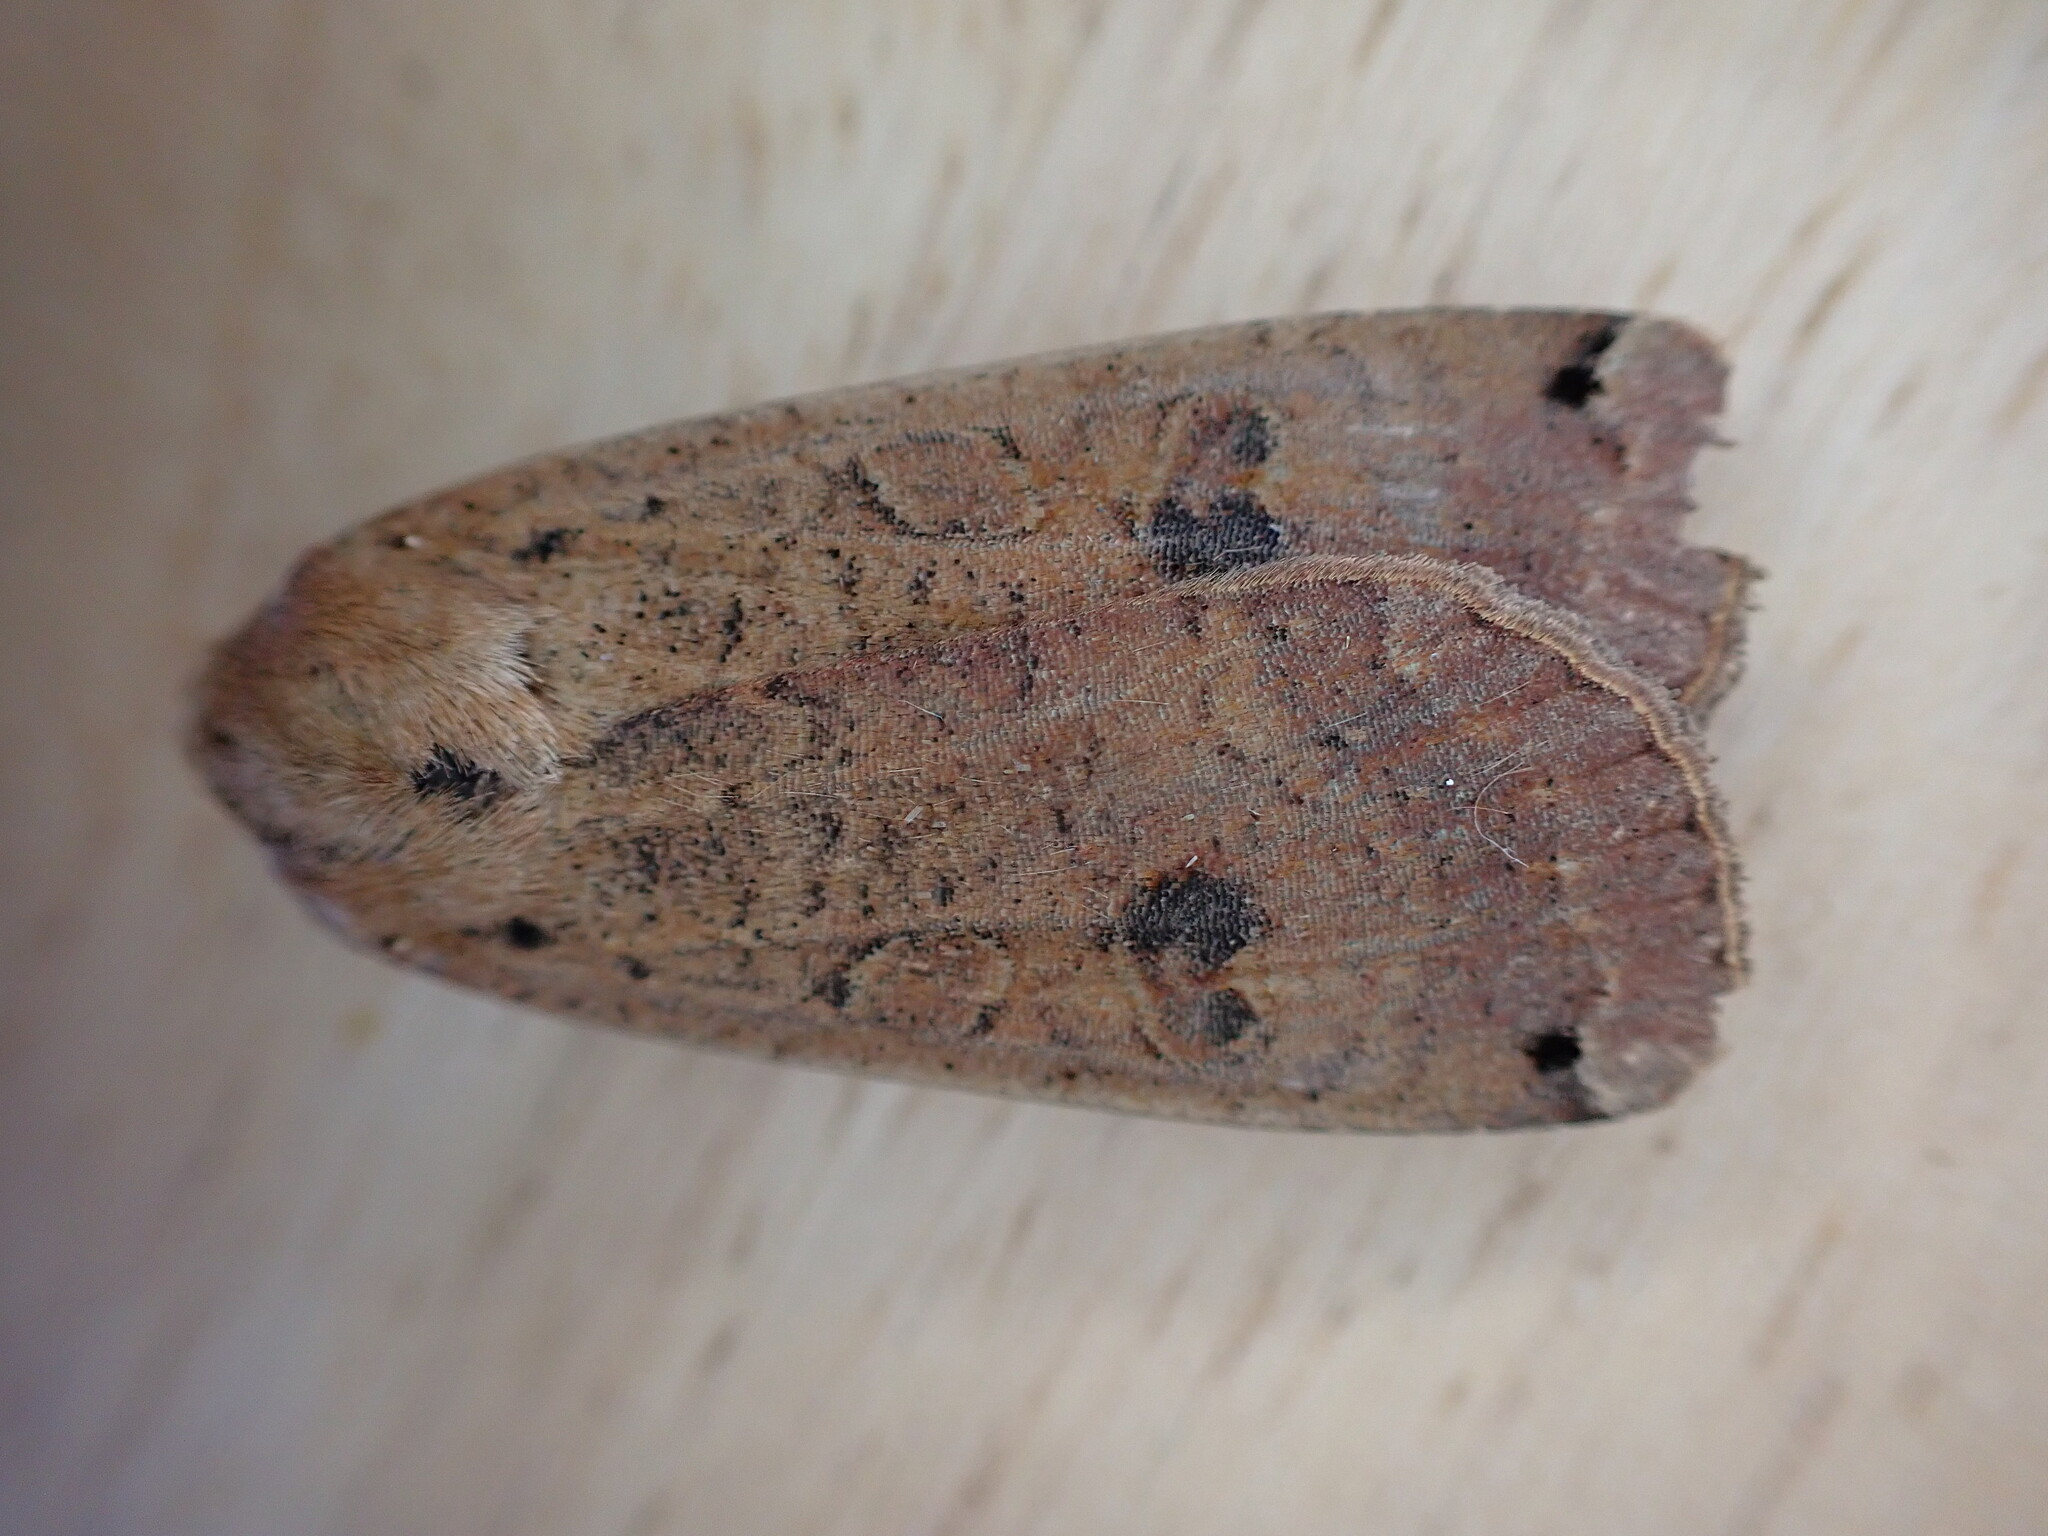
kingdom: Animalia
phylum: Arthropoda
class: Insecta
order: Lepidoptera
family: Noctuidae
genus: Noctua
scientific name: Noctua pronuba
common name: Large yellow underwing
